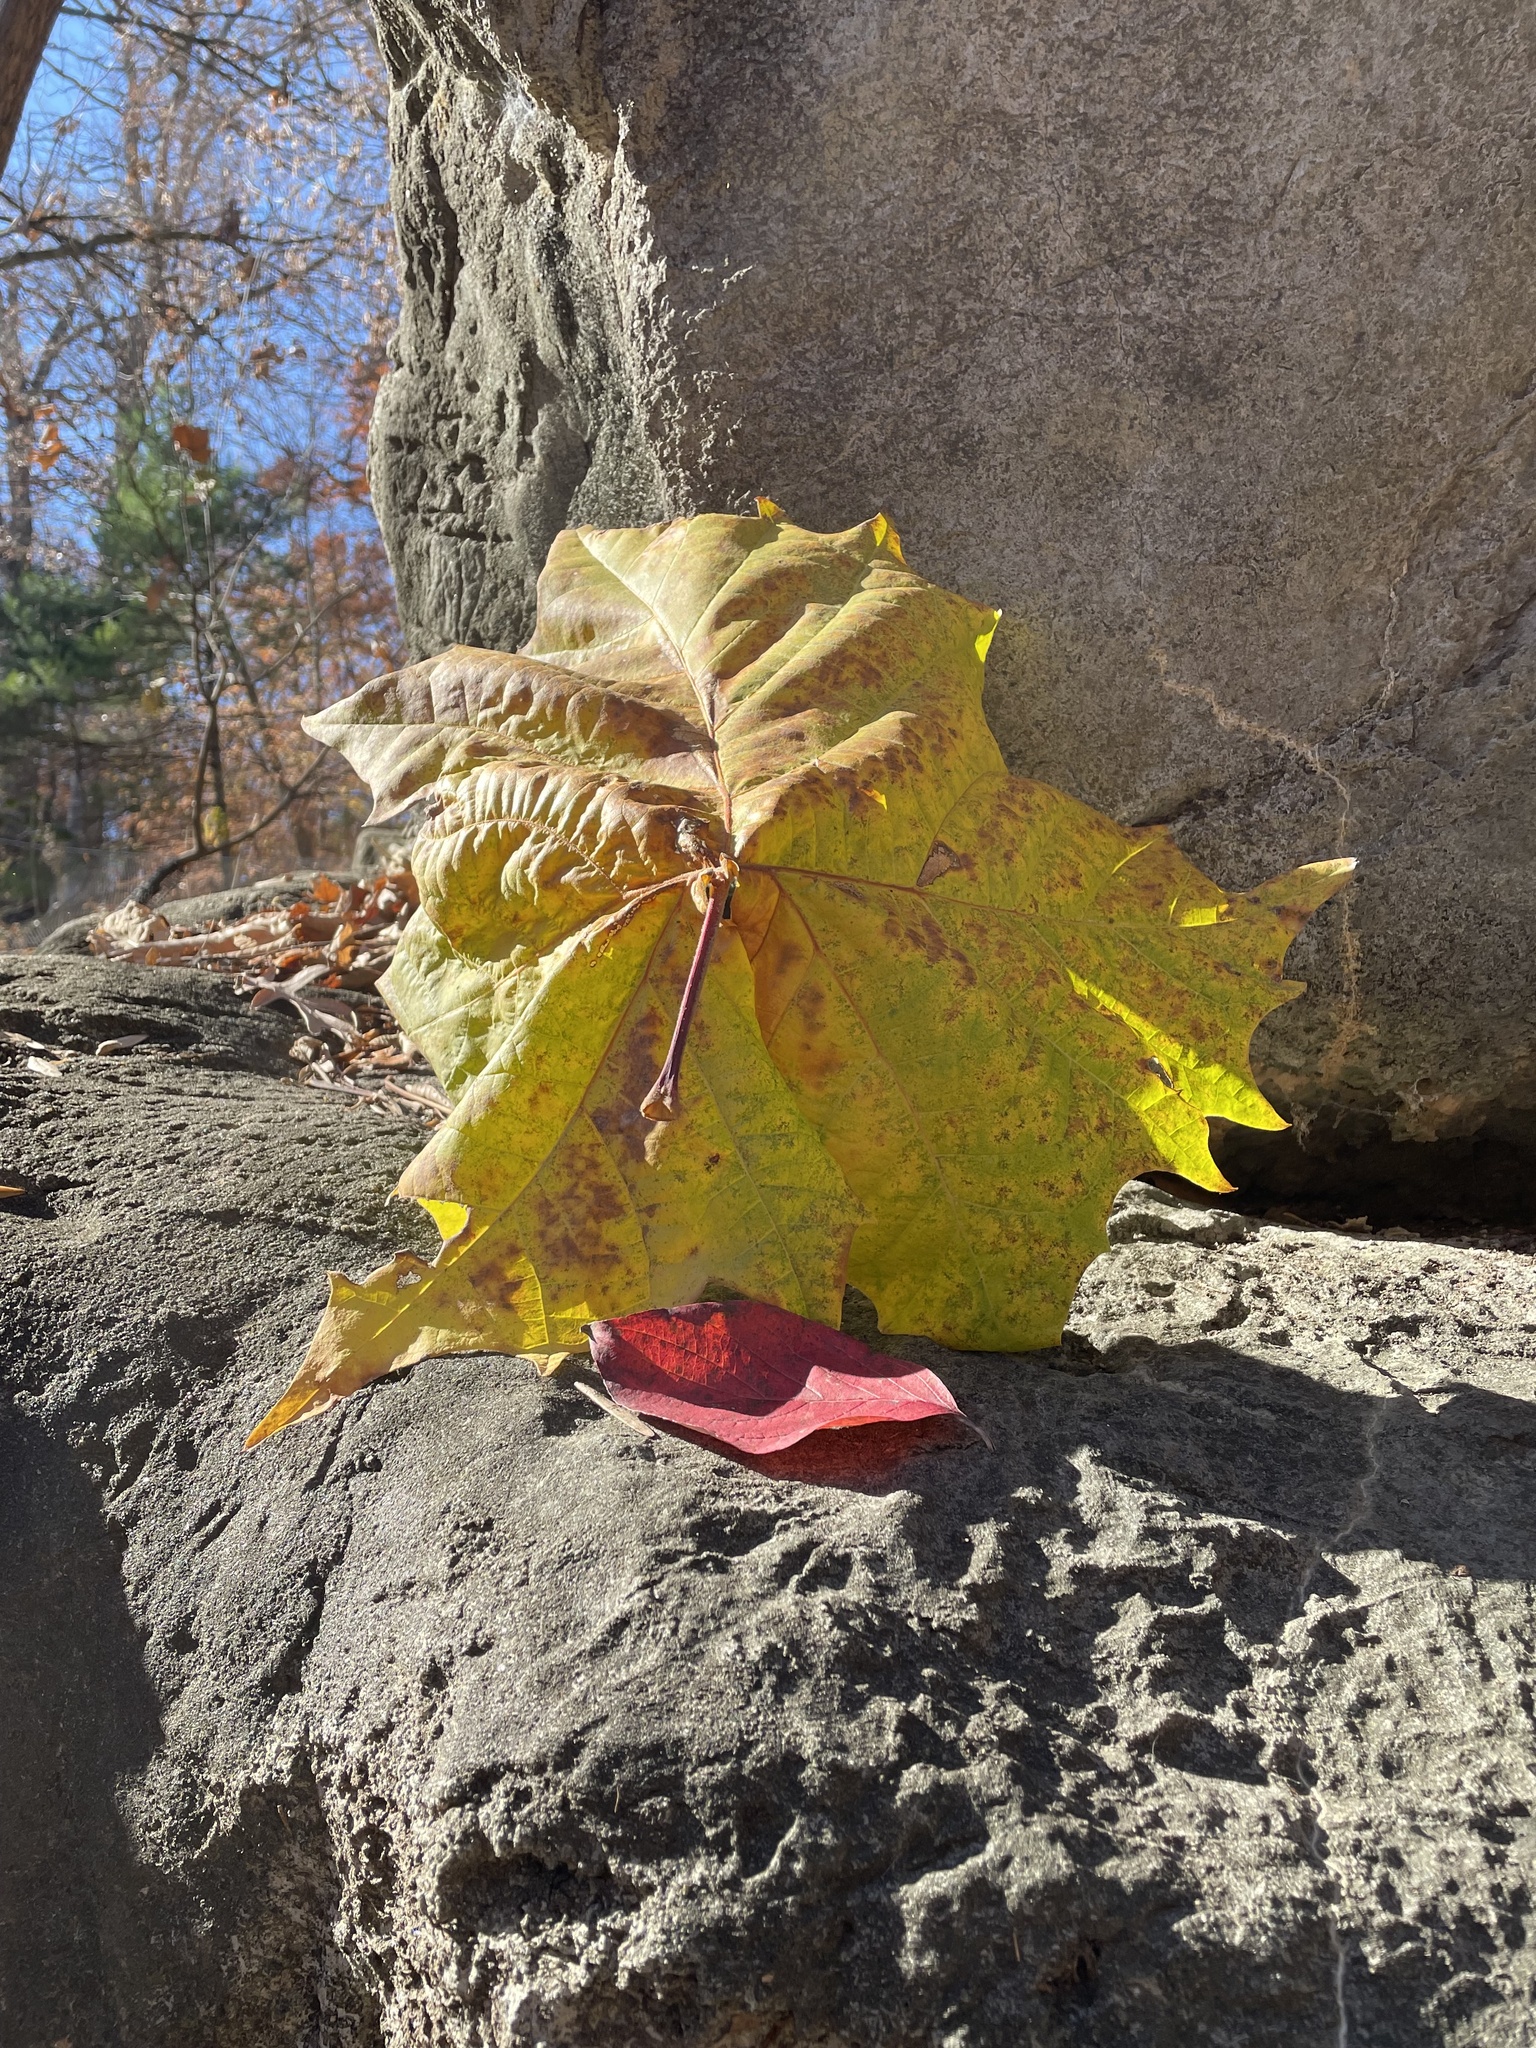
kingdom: Plantae
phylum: Tracheophyta
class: Magnoliopsida
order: Proteales
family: Platanaceae
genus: Platanus
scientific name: Platanus occidentalis
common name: American sycamore
